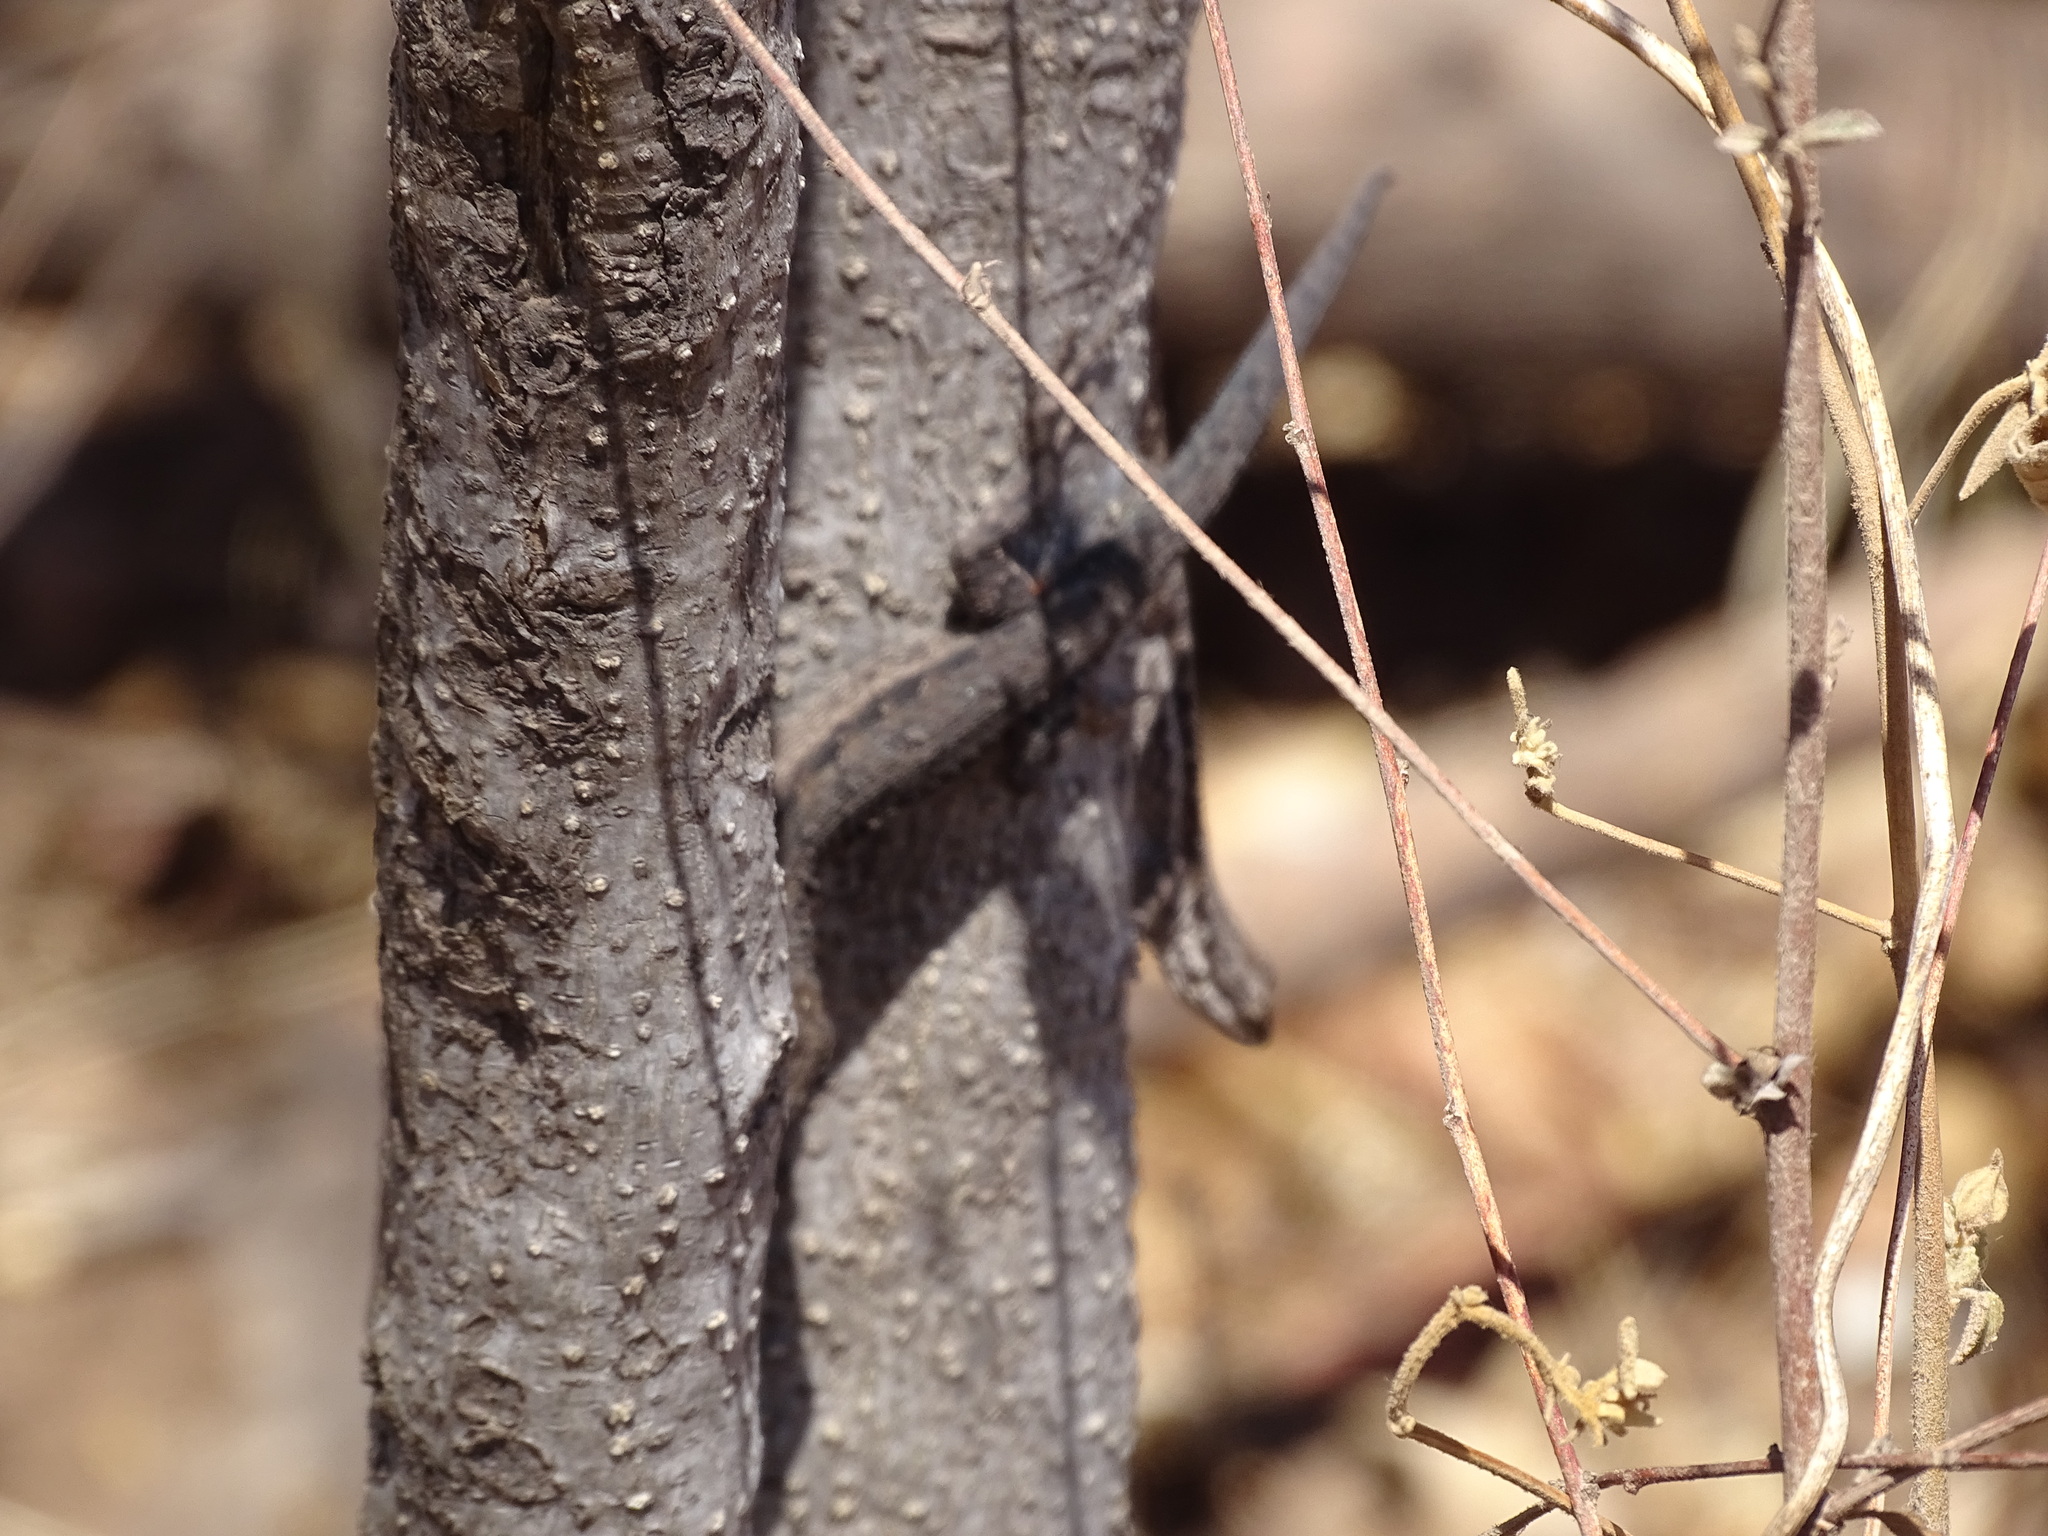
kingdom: Animalia
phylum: Chordata
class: Squamata
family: Phrynosomatidae
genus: Urosaurus
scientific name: Urosaurus ornatus
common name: Ornate tree lizard
